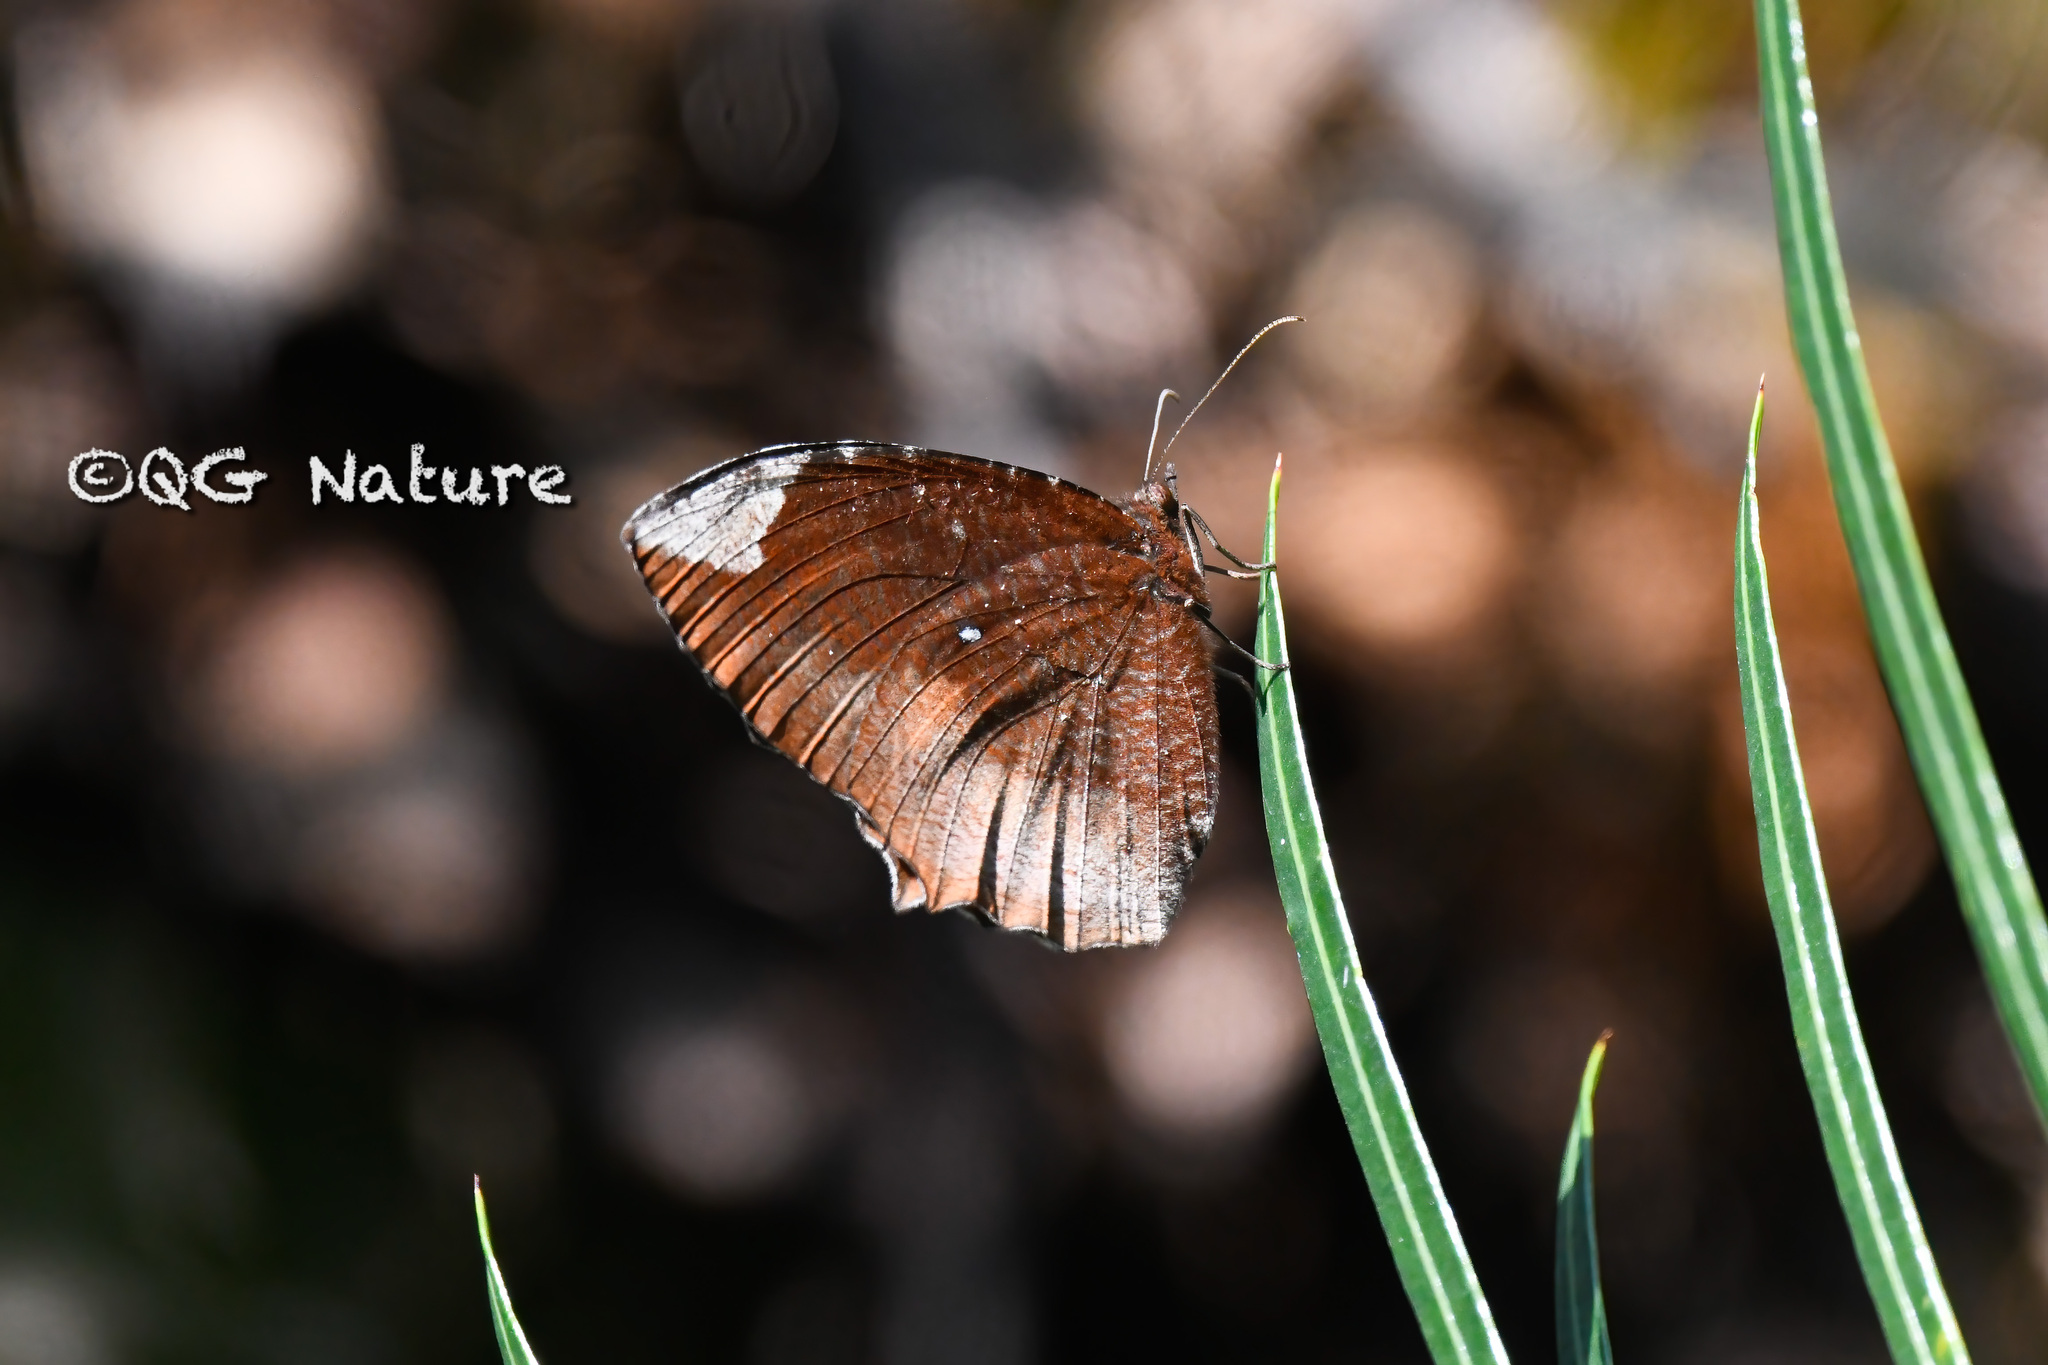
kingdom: Animalia
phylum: Arthropoda
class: Insecta
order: Lepidoptera
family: Nymphalidae
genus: Elymnias
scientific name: Elymnias hypermnestra
